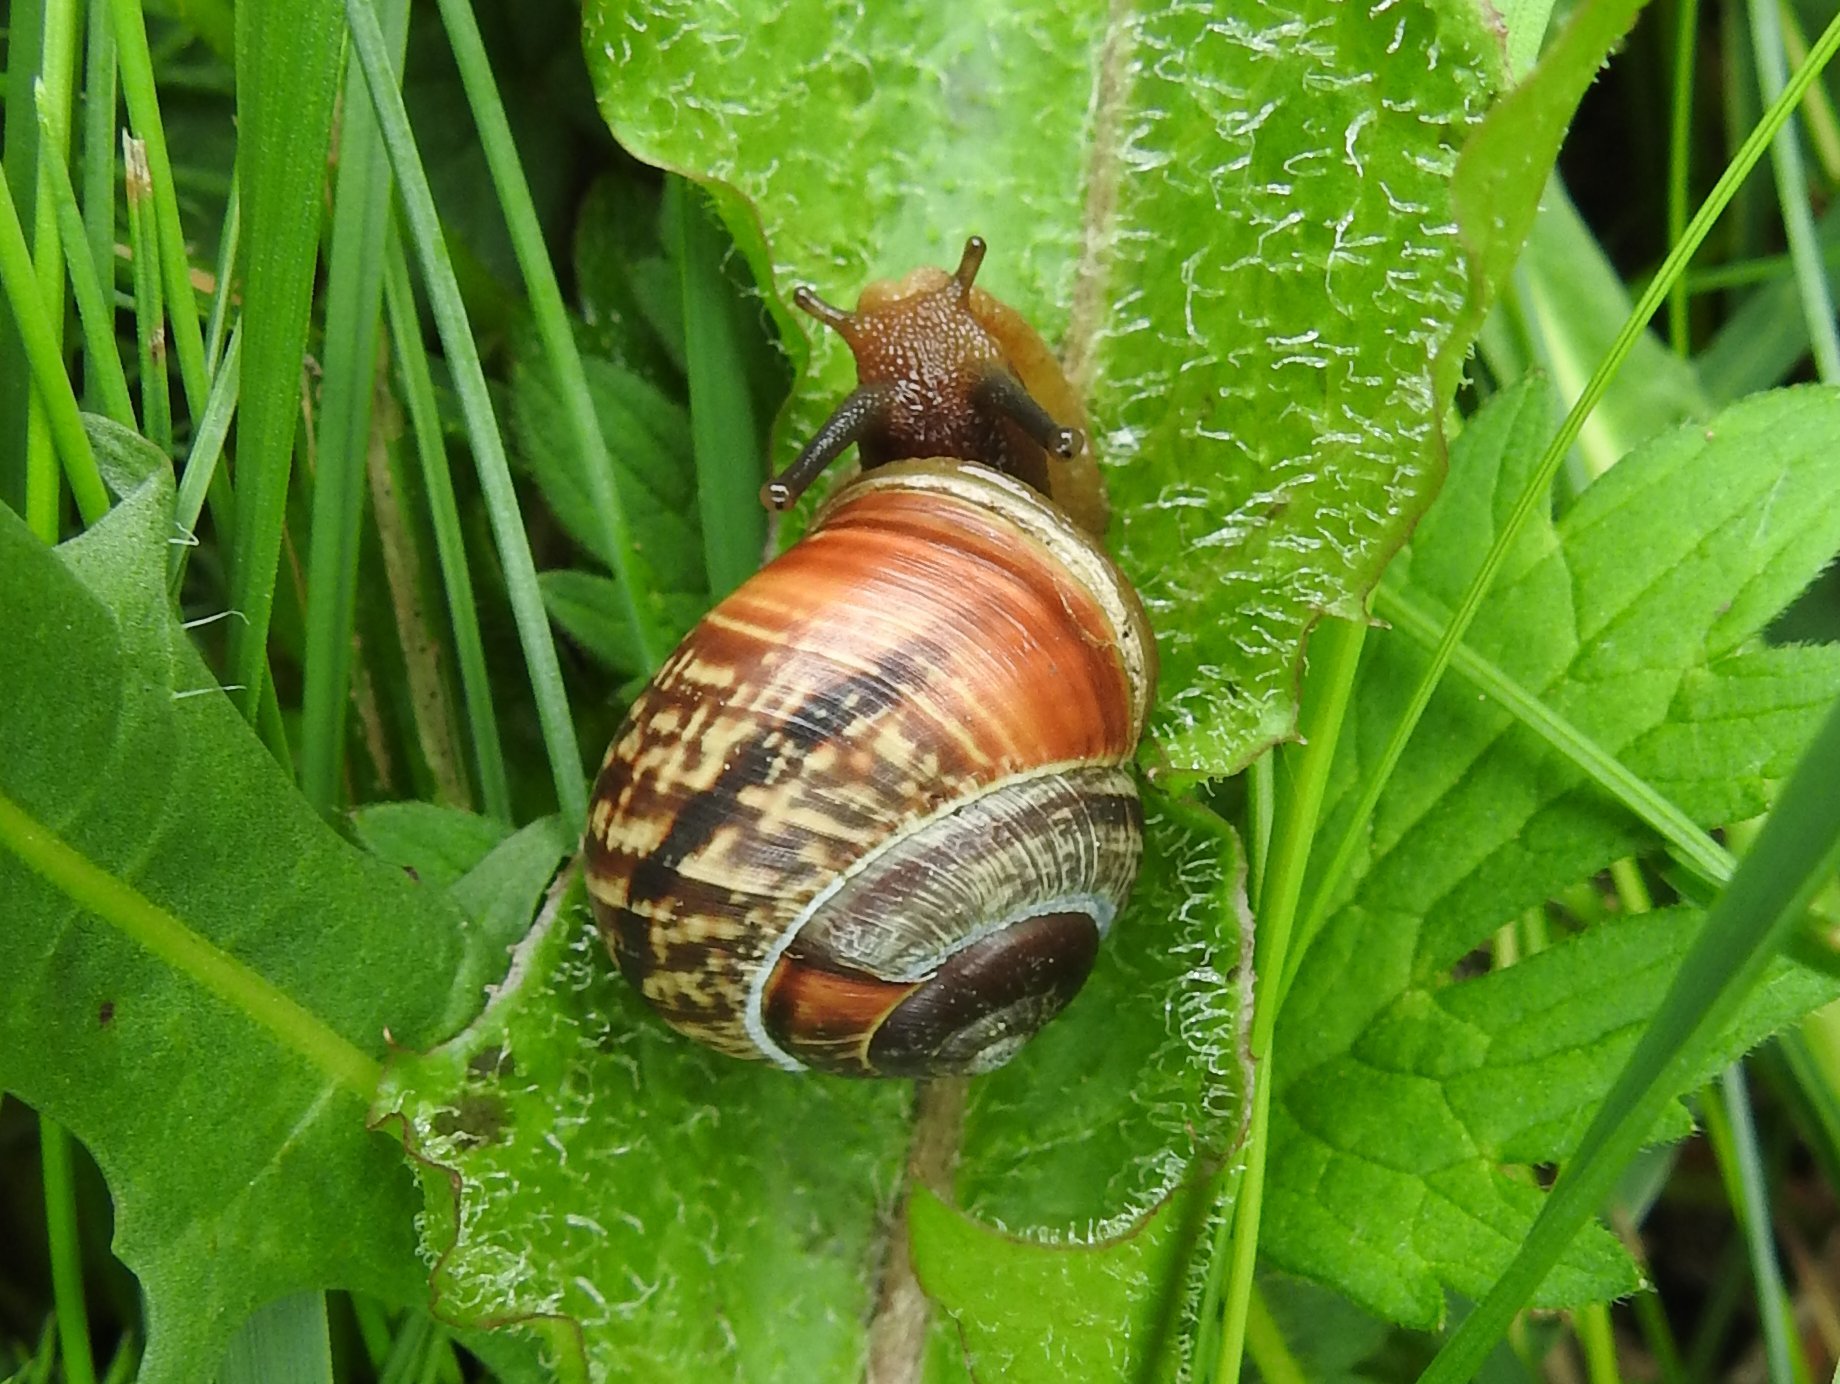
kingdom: Animalia
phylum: Mollusca
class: Gastropoda
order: Stylommatophora
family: Helicidae
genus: Arianta
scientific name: Arianta arbustorum
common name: Copse snail
